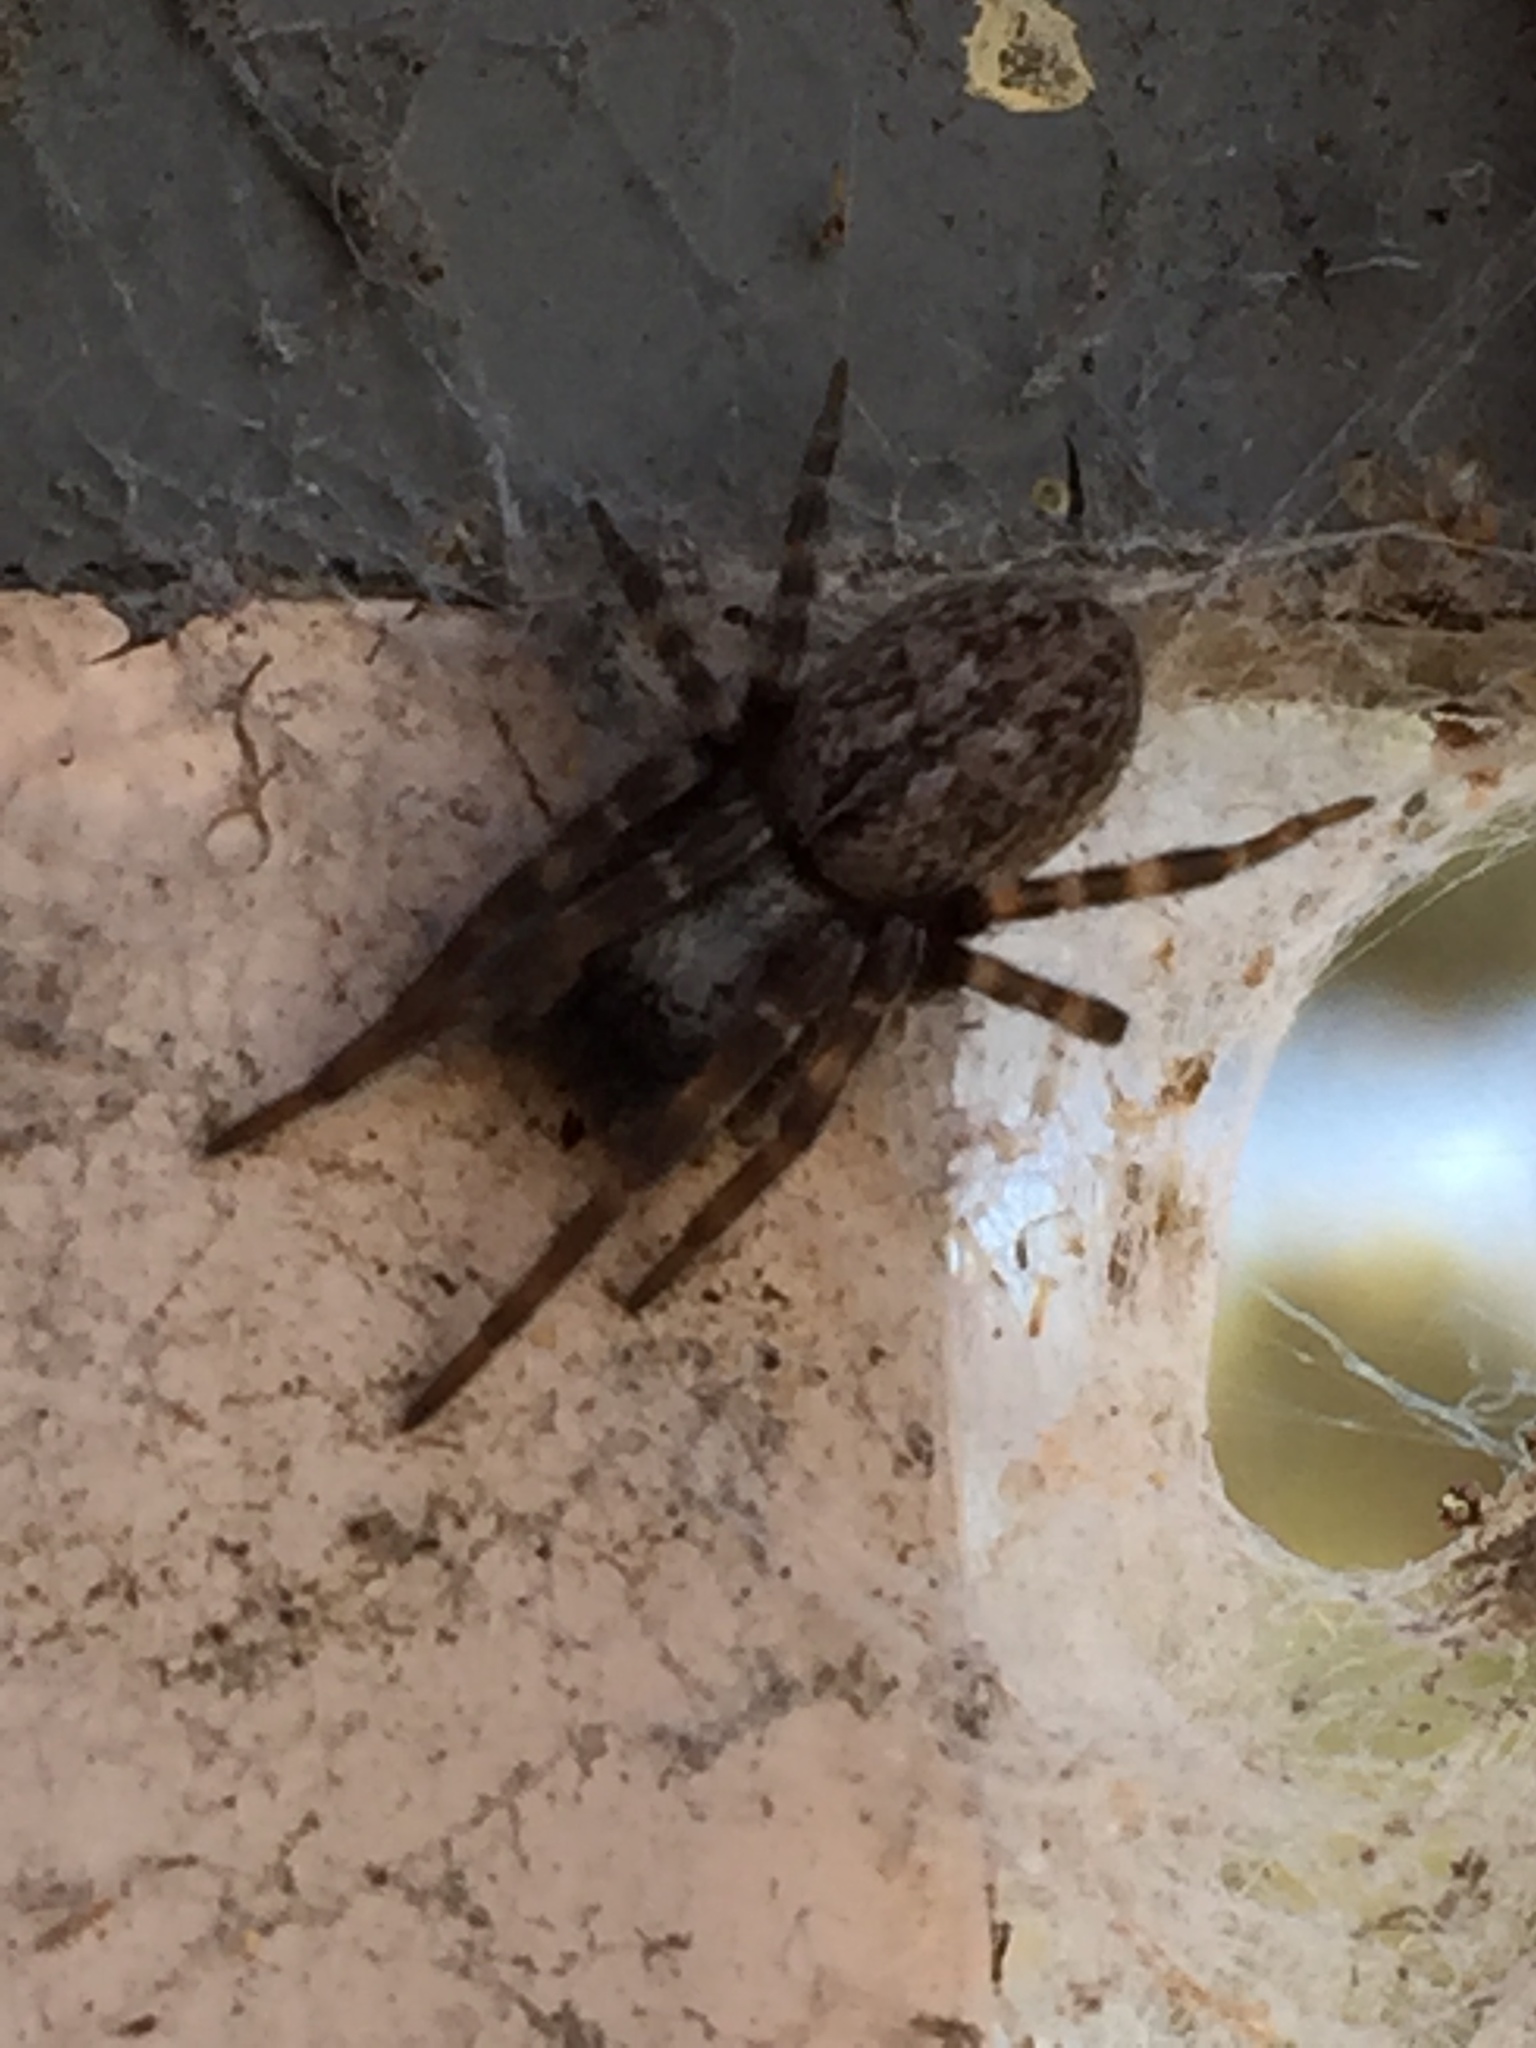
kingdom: Animalia
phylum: Arthropoda
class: Arachnida
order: Araneae
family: Desidae
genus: Badumna
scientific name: Badumna longinqua
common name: Gray house spider
